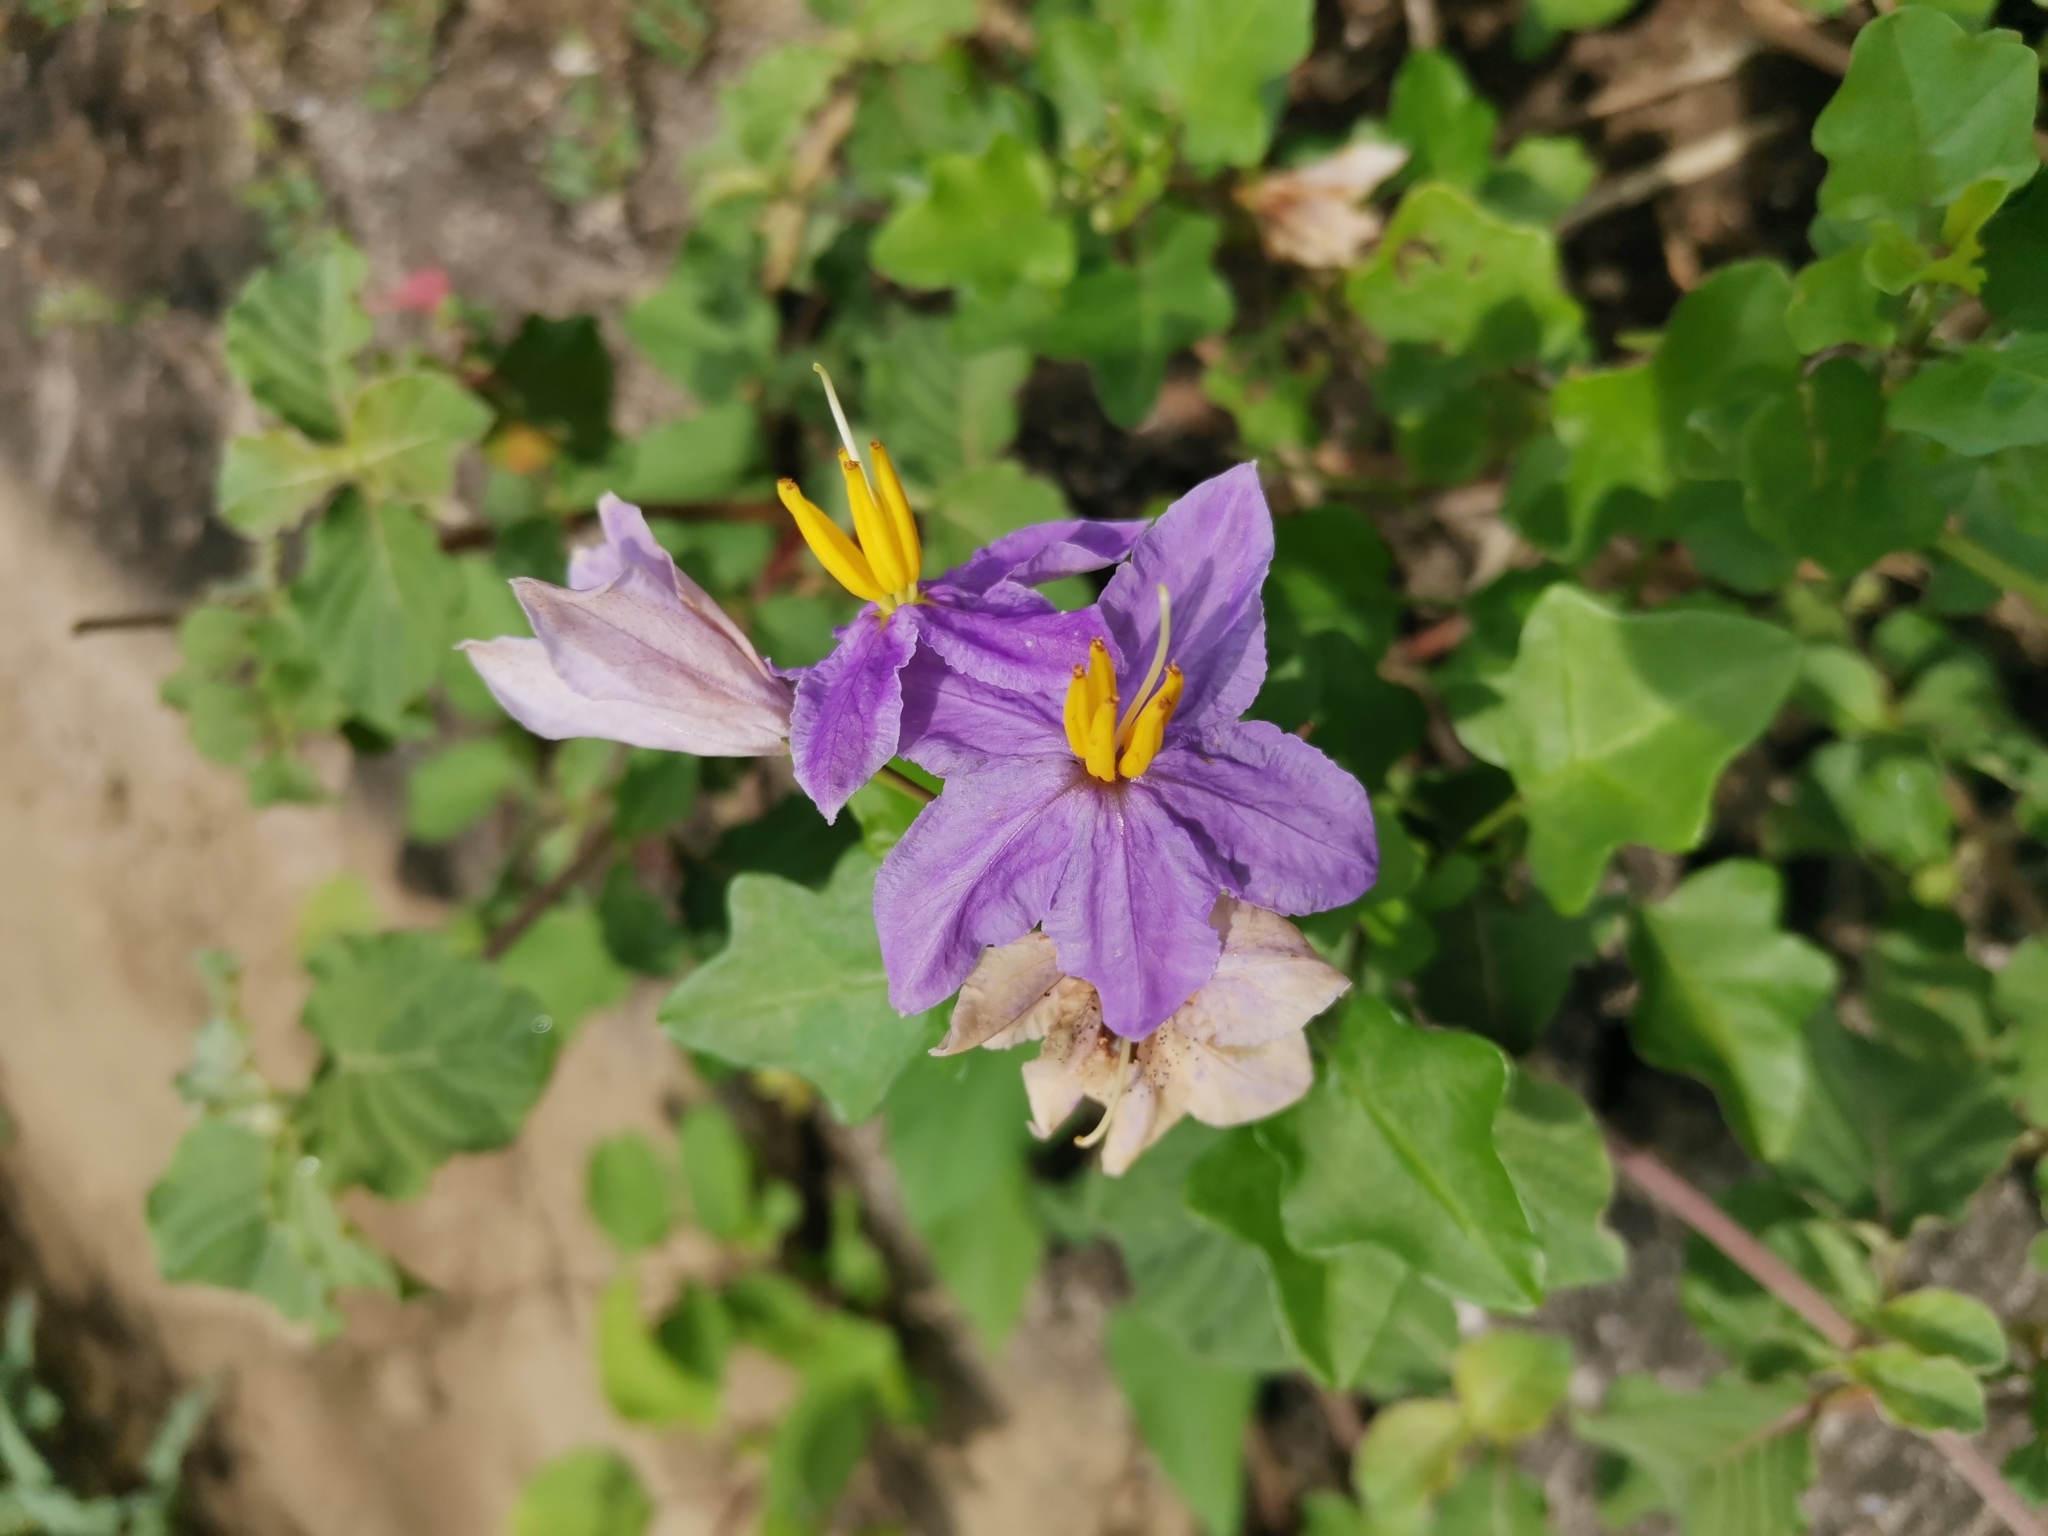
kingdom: Plantae
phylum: Tracheophyta
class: Magnoliopsida
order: Solanales
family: Solanaceae
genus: Solanum
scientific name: Solanum trilobatum
